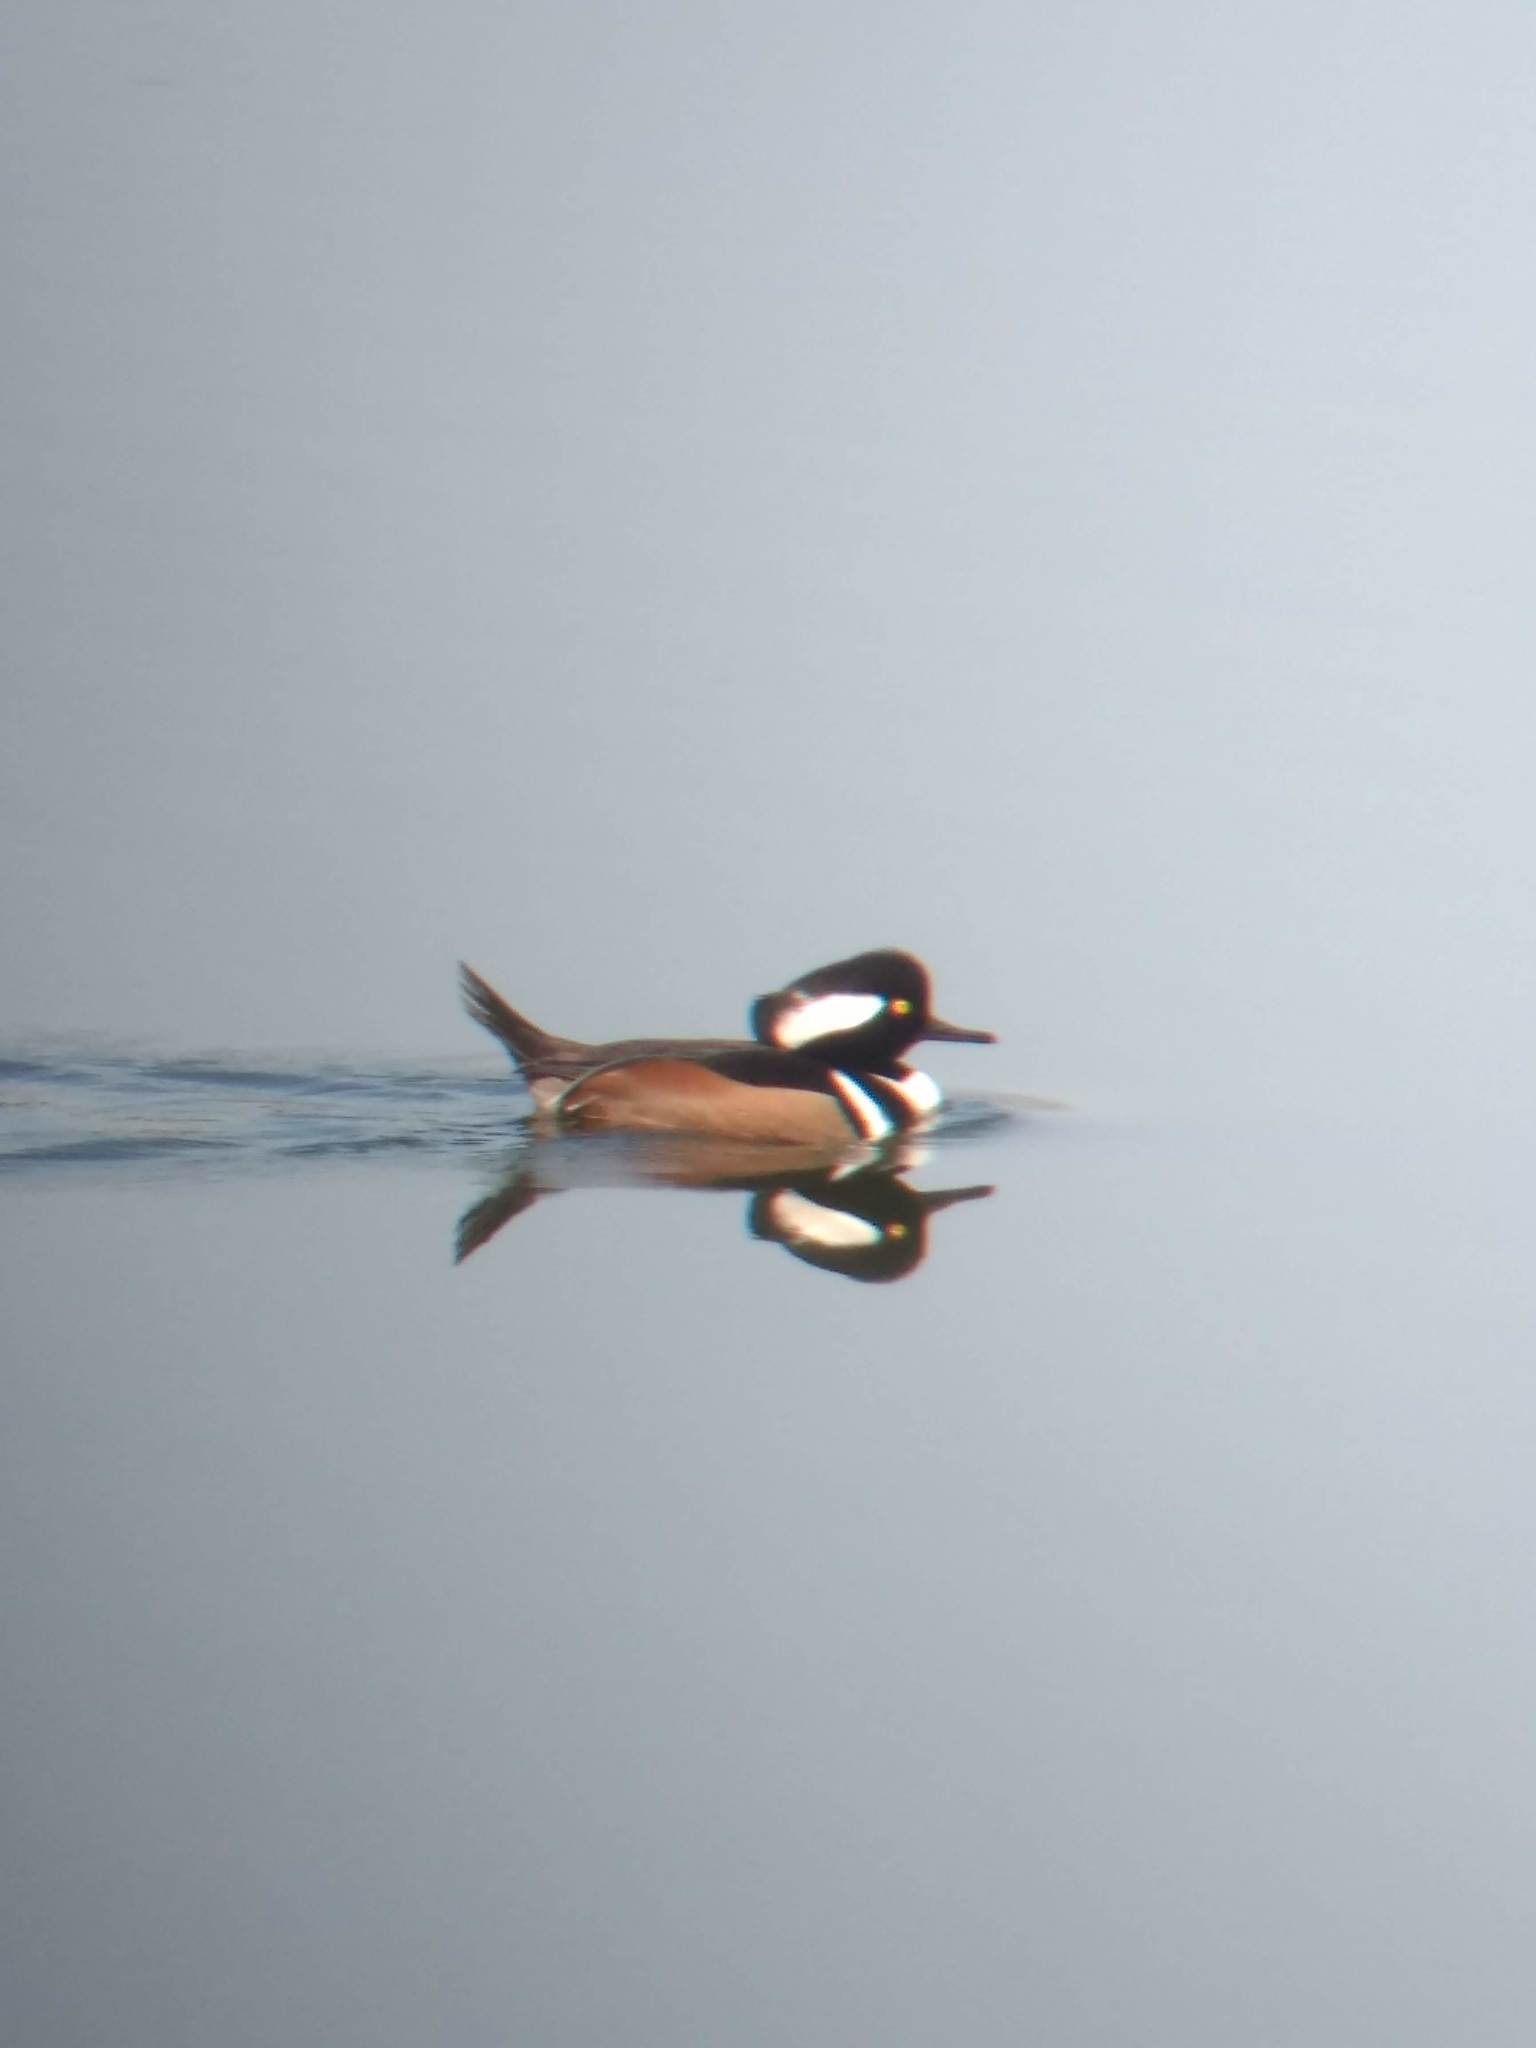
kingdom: Animalia
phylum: Chordata
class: Aves
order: Anseriformes
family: Anatidae
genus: Lophodytes
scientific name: Lophodytes cucullatus
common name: Hooded merganser
